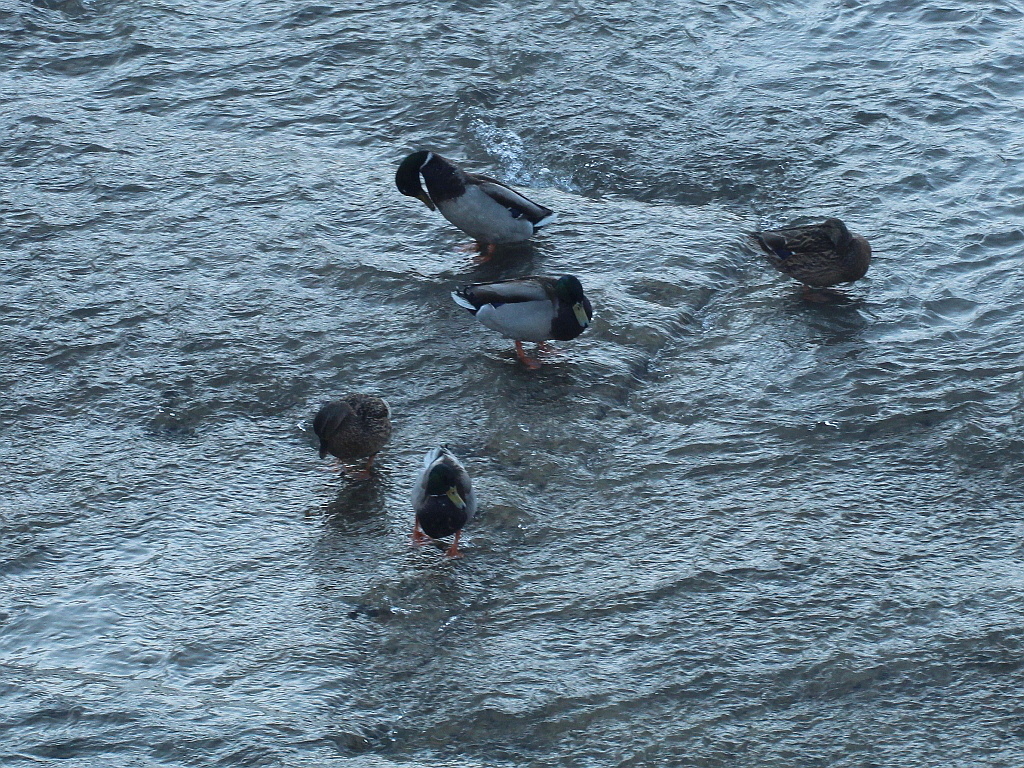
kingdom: Animalia
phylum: Chordata
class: Aves
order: Anseriformes
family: Anatidae
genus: Anas
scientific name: Anas platyrhynchos
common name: Mallard
